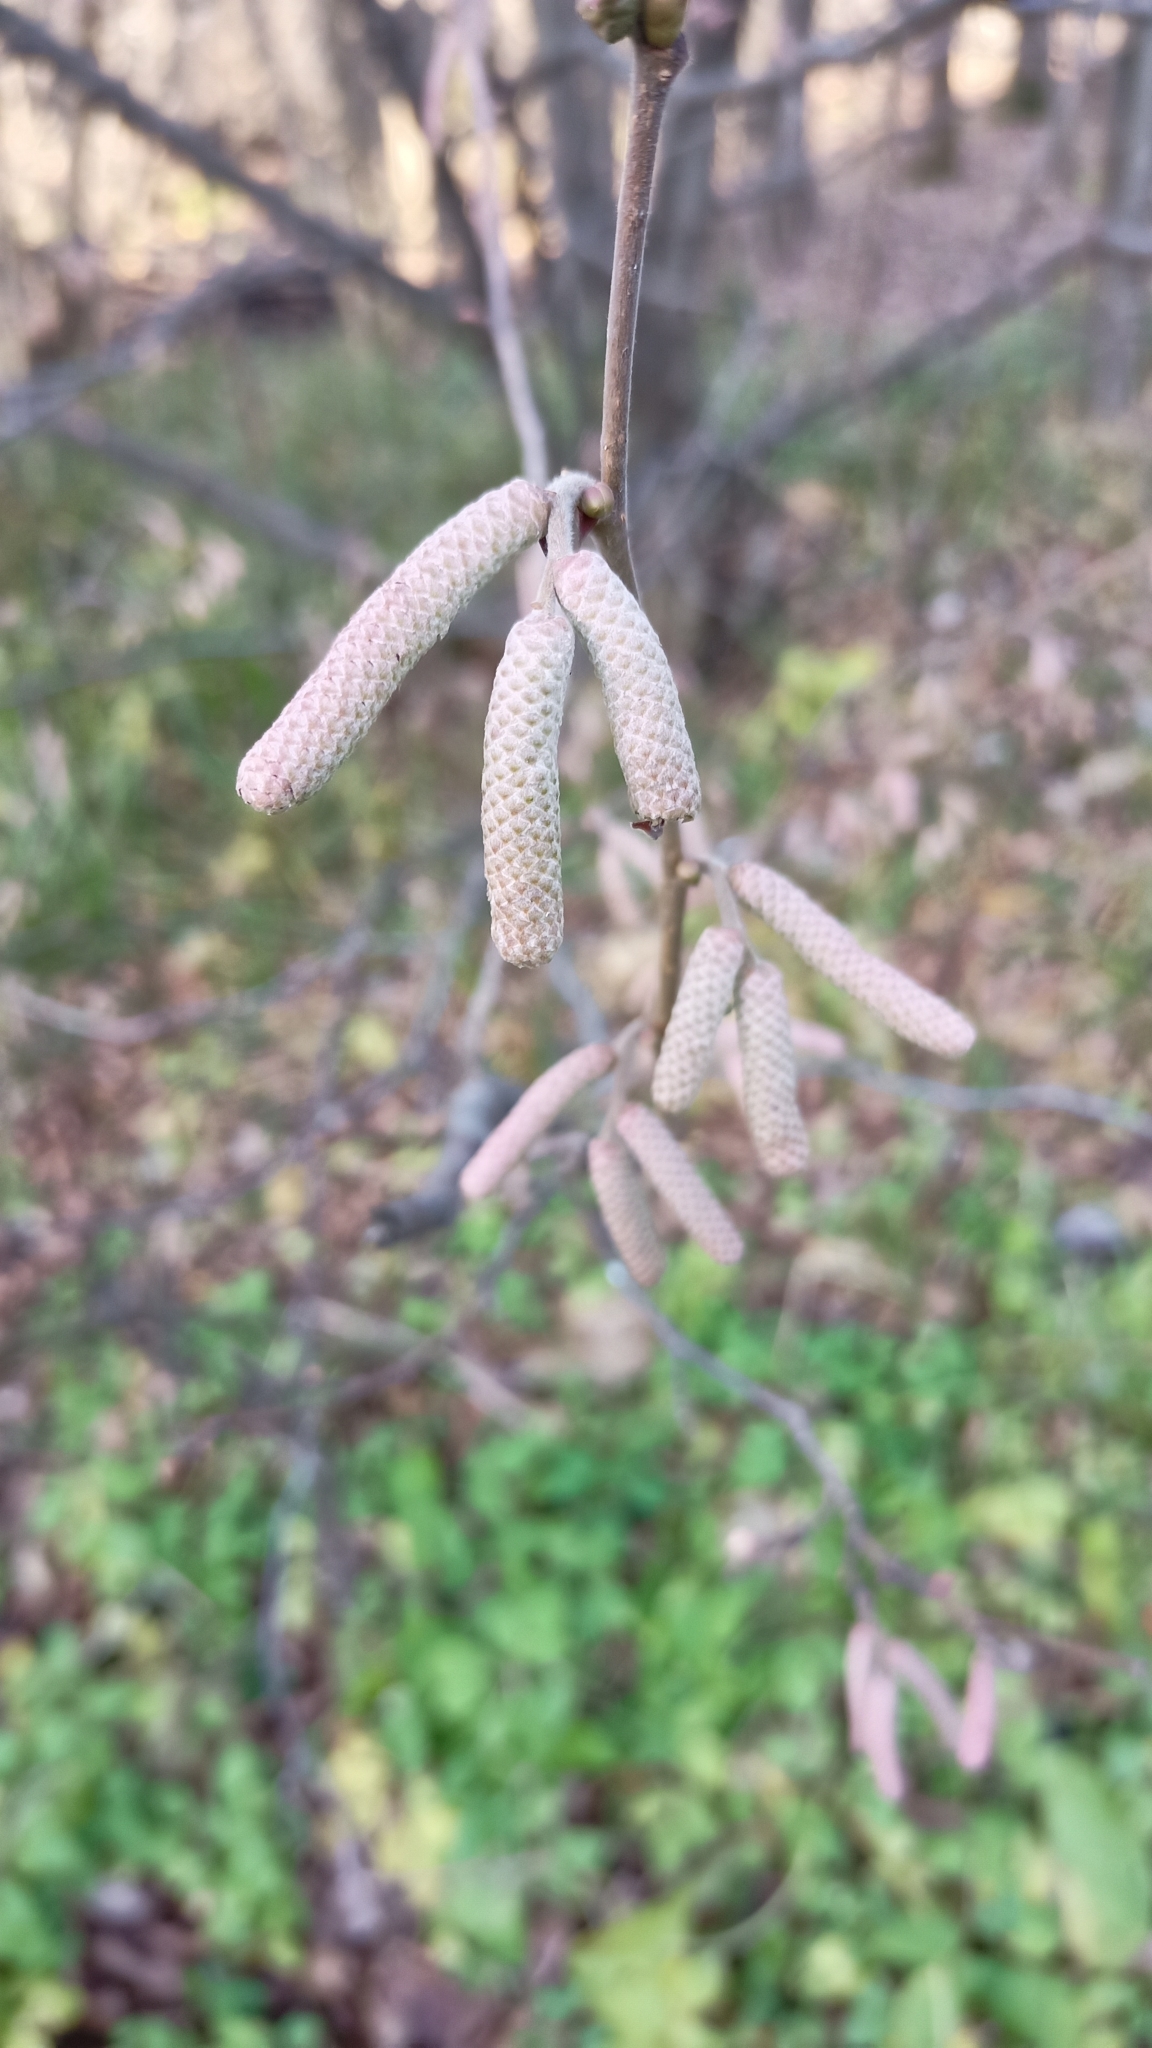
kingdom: Plantae
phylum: Tracheophyta
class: Magnoliopsida
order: Fagales
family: Betulaceae
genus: Corylus
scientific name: Corylus avellana
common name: European hazel
